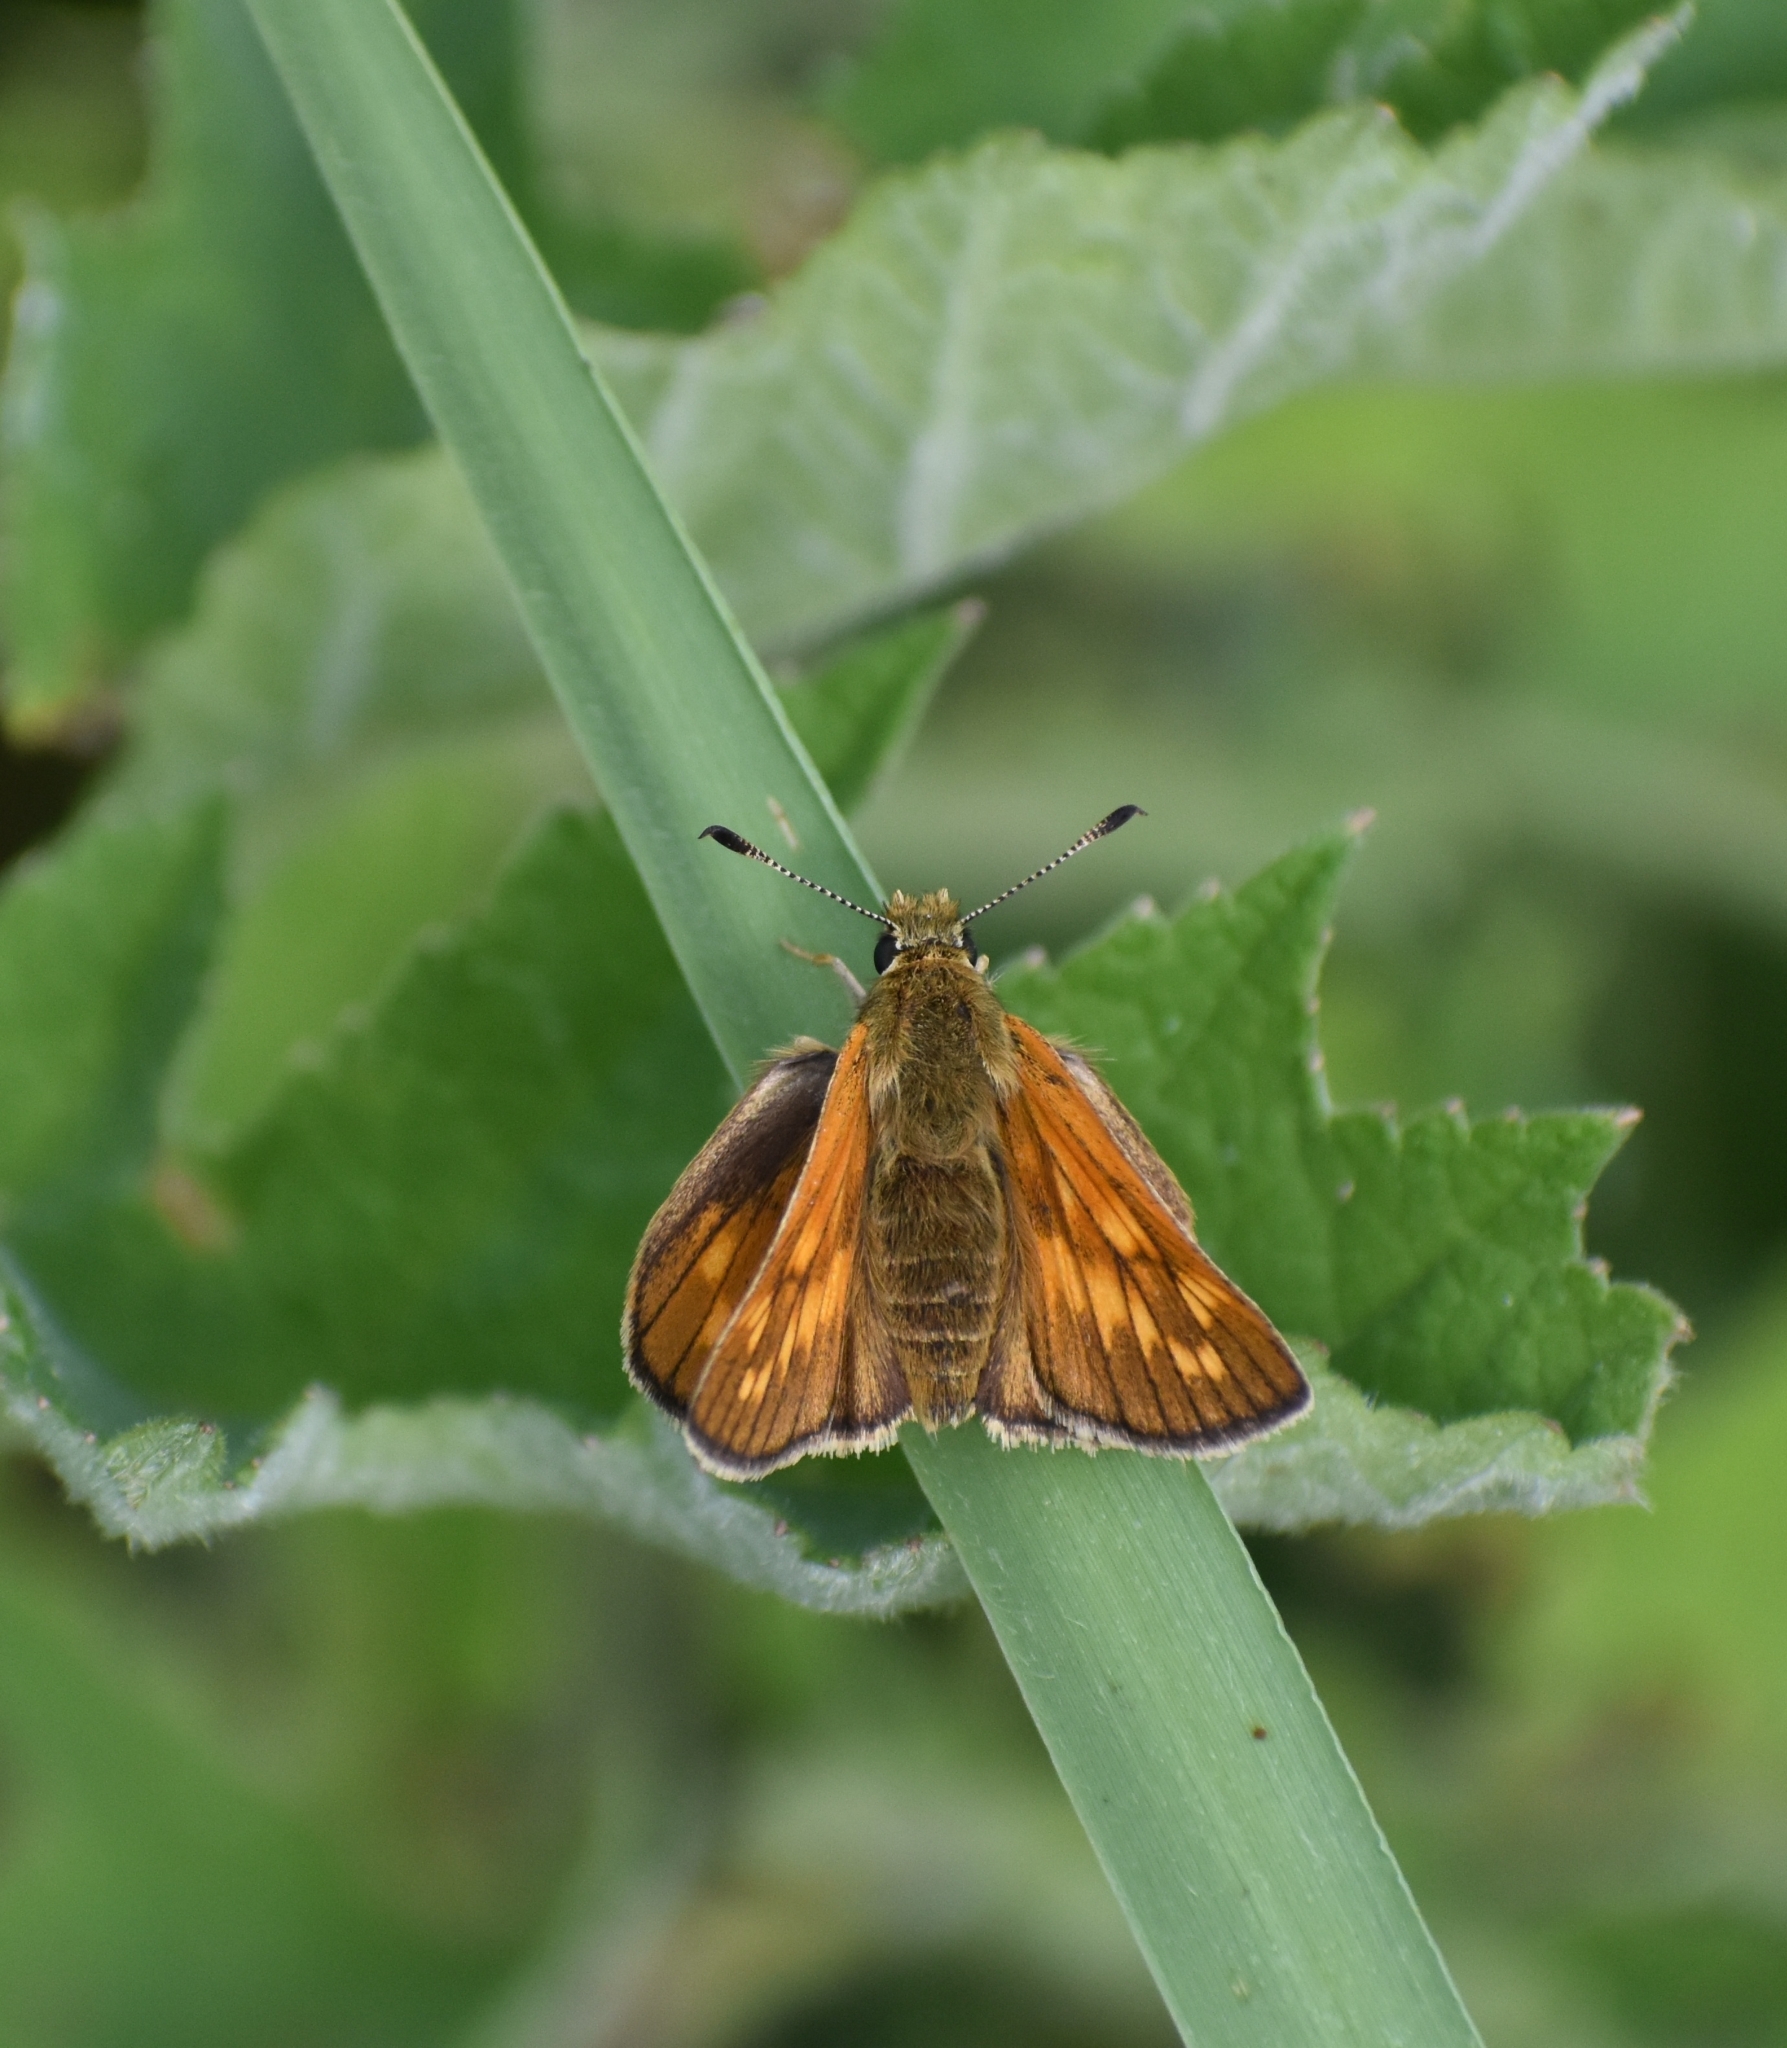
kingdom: Animalia
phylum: Arthropoda
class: Insecta
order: Lepidoptera
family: Hesperiidae
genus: Ochlodes
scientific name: Ochlodes venata
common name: Large skipper
